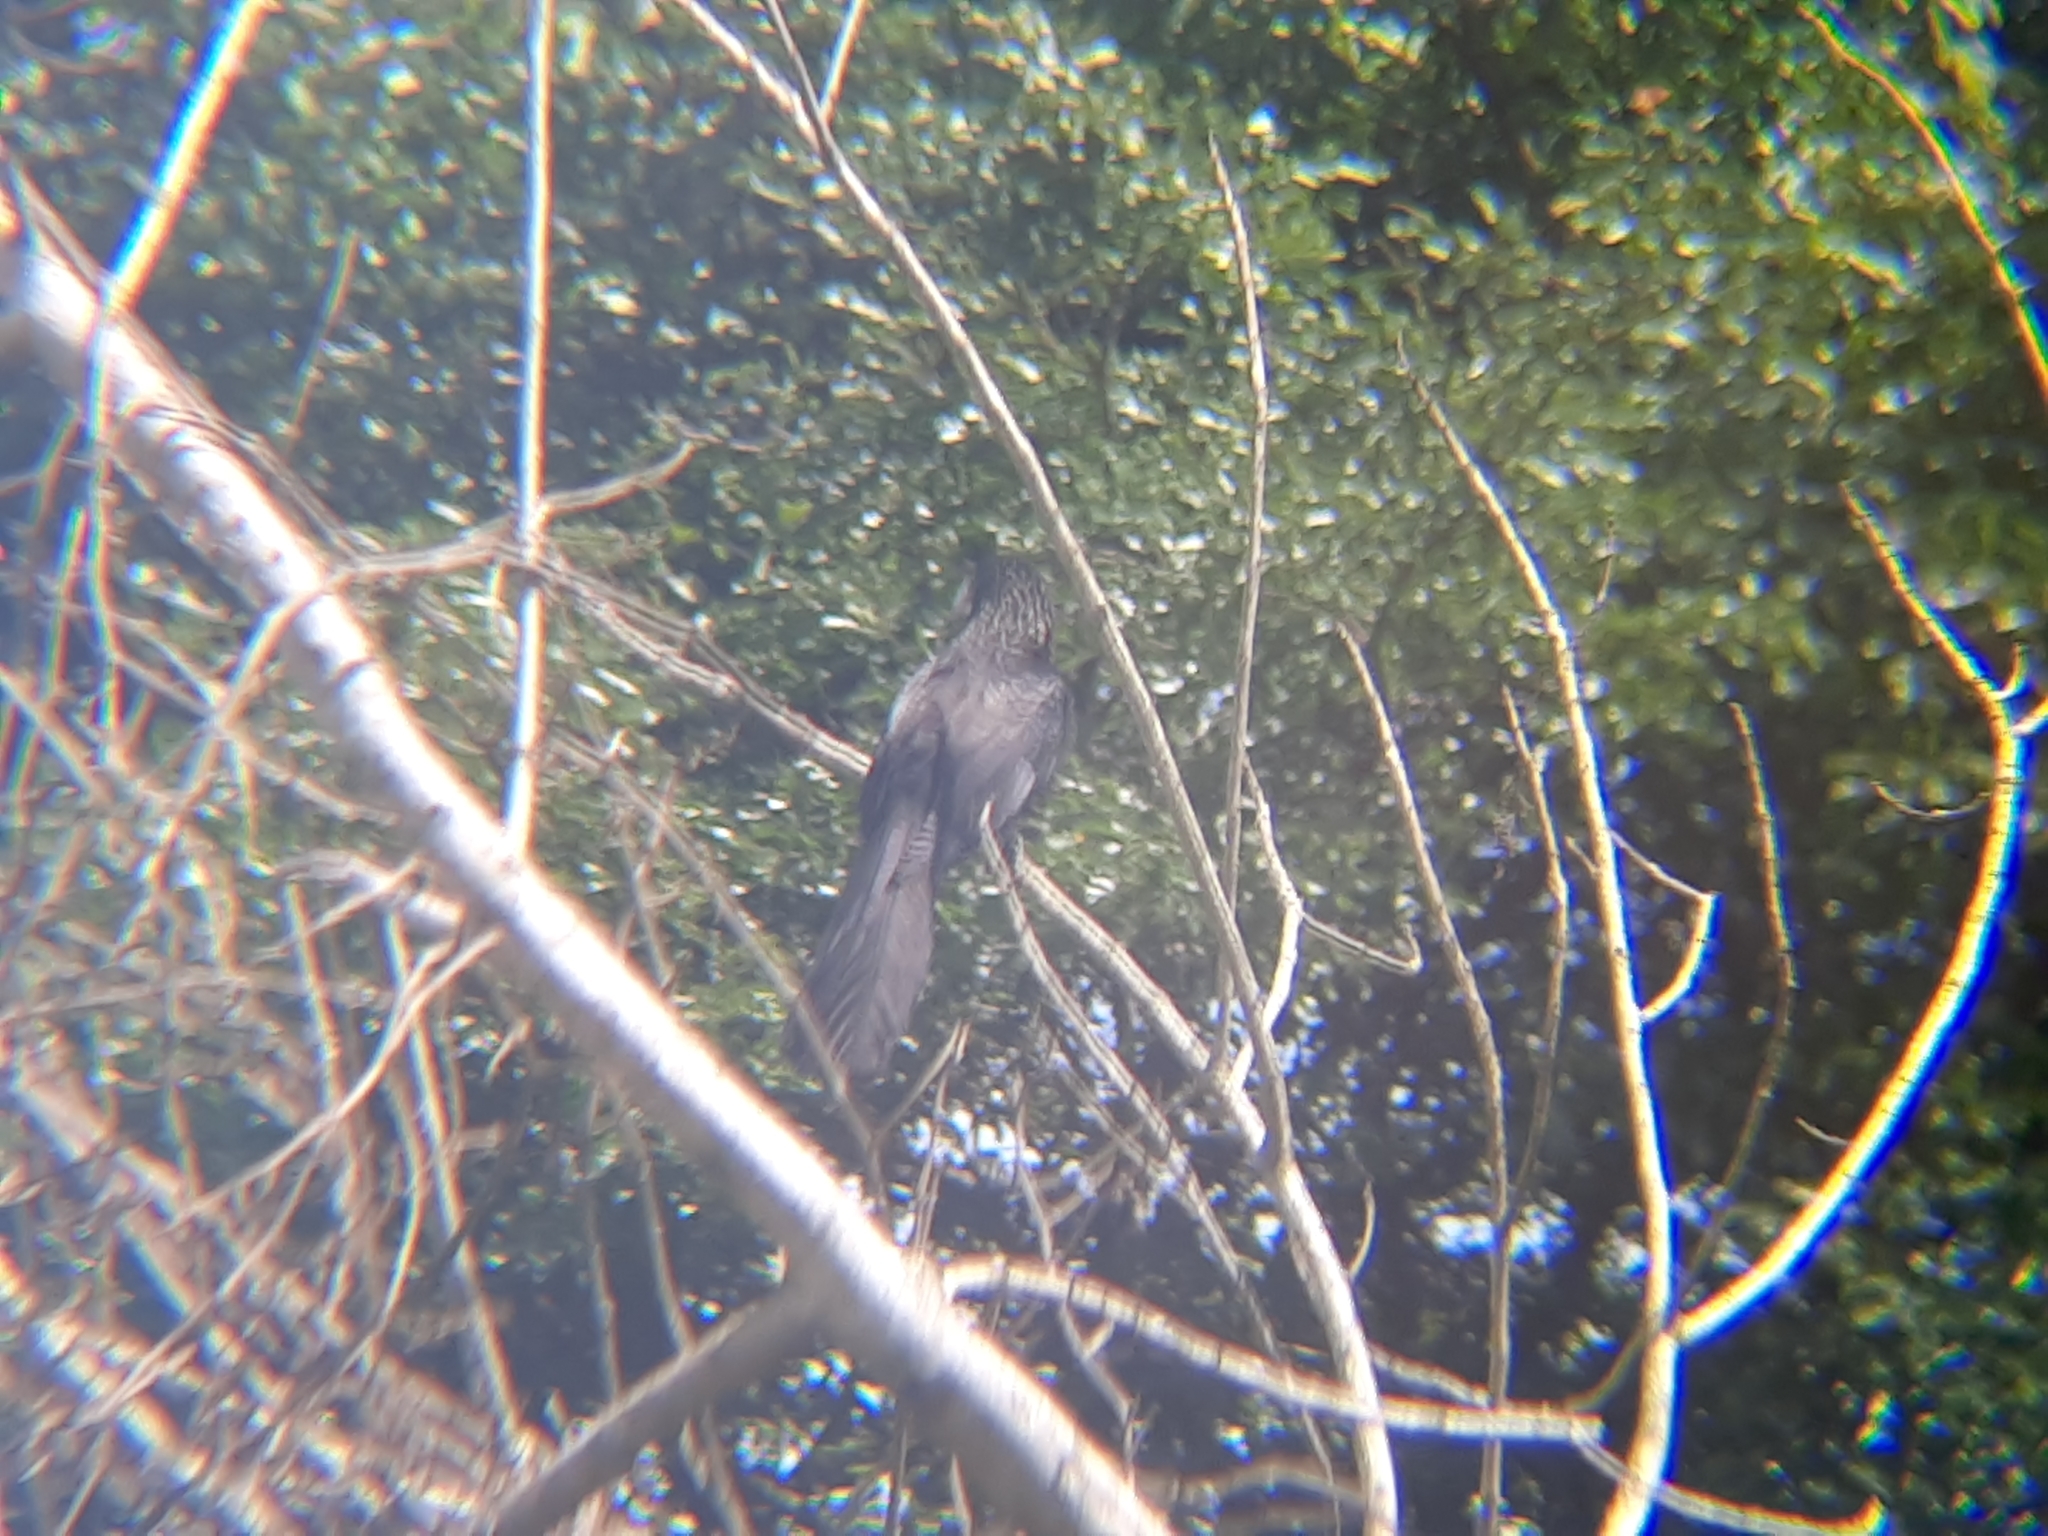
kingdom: Animalia
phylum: Chordata
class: Aves
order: Cuculiformes
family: Cuculidae
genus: Crotophaga
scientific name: Crotophaga ani
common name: Smooth-billed ani
